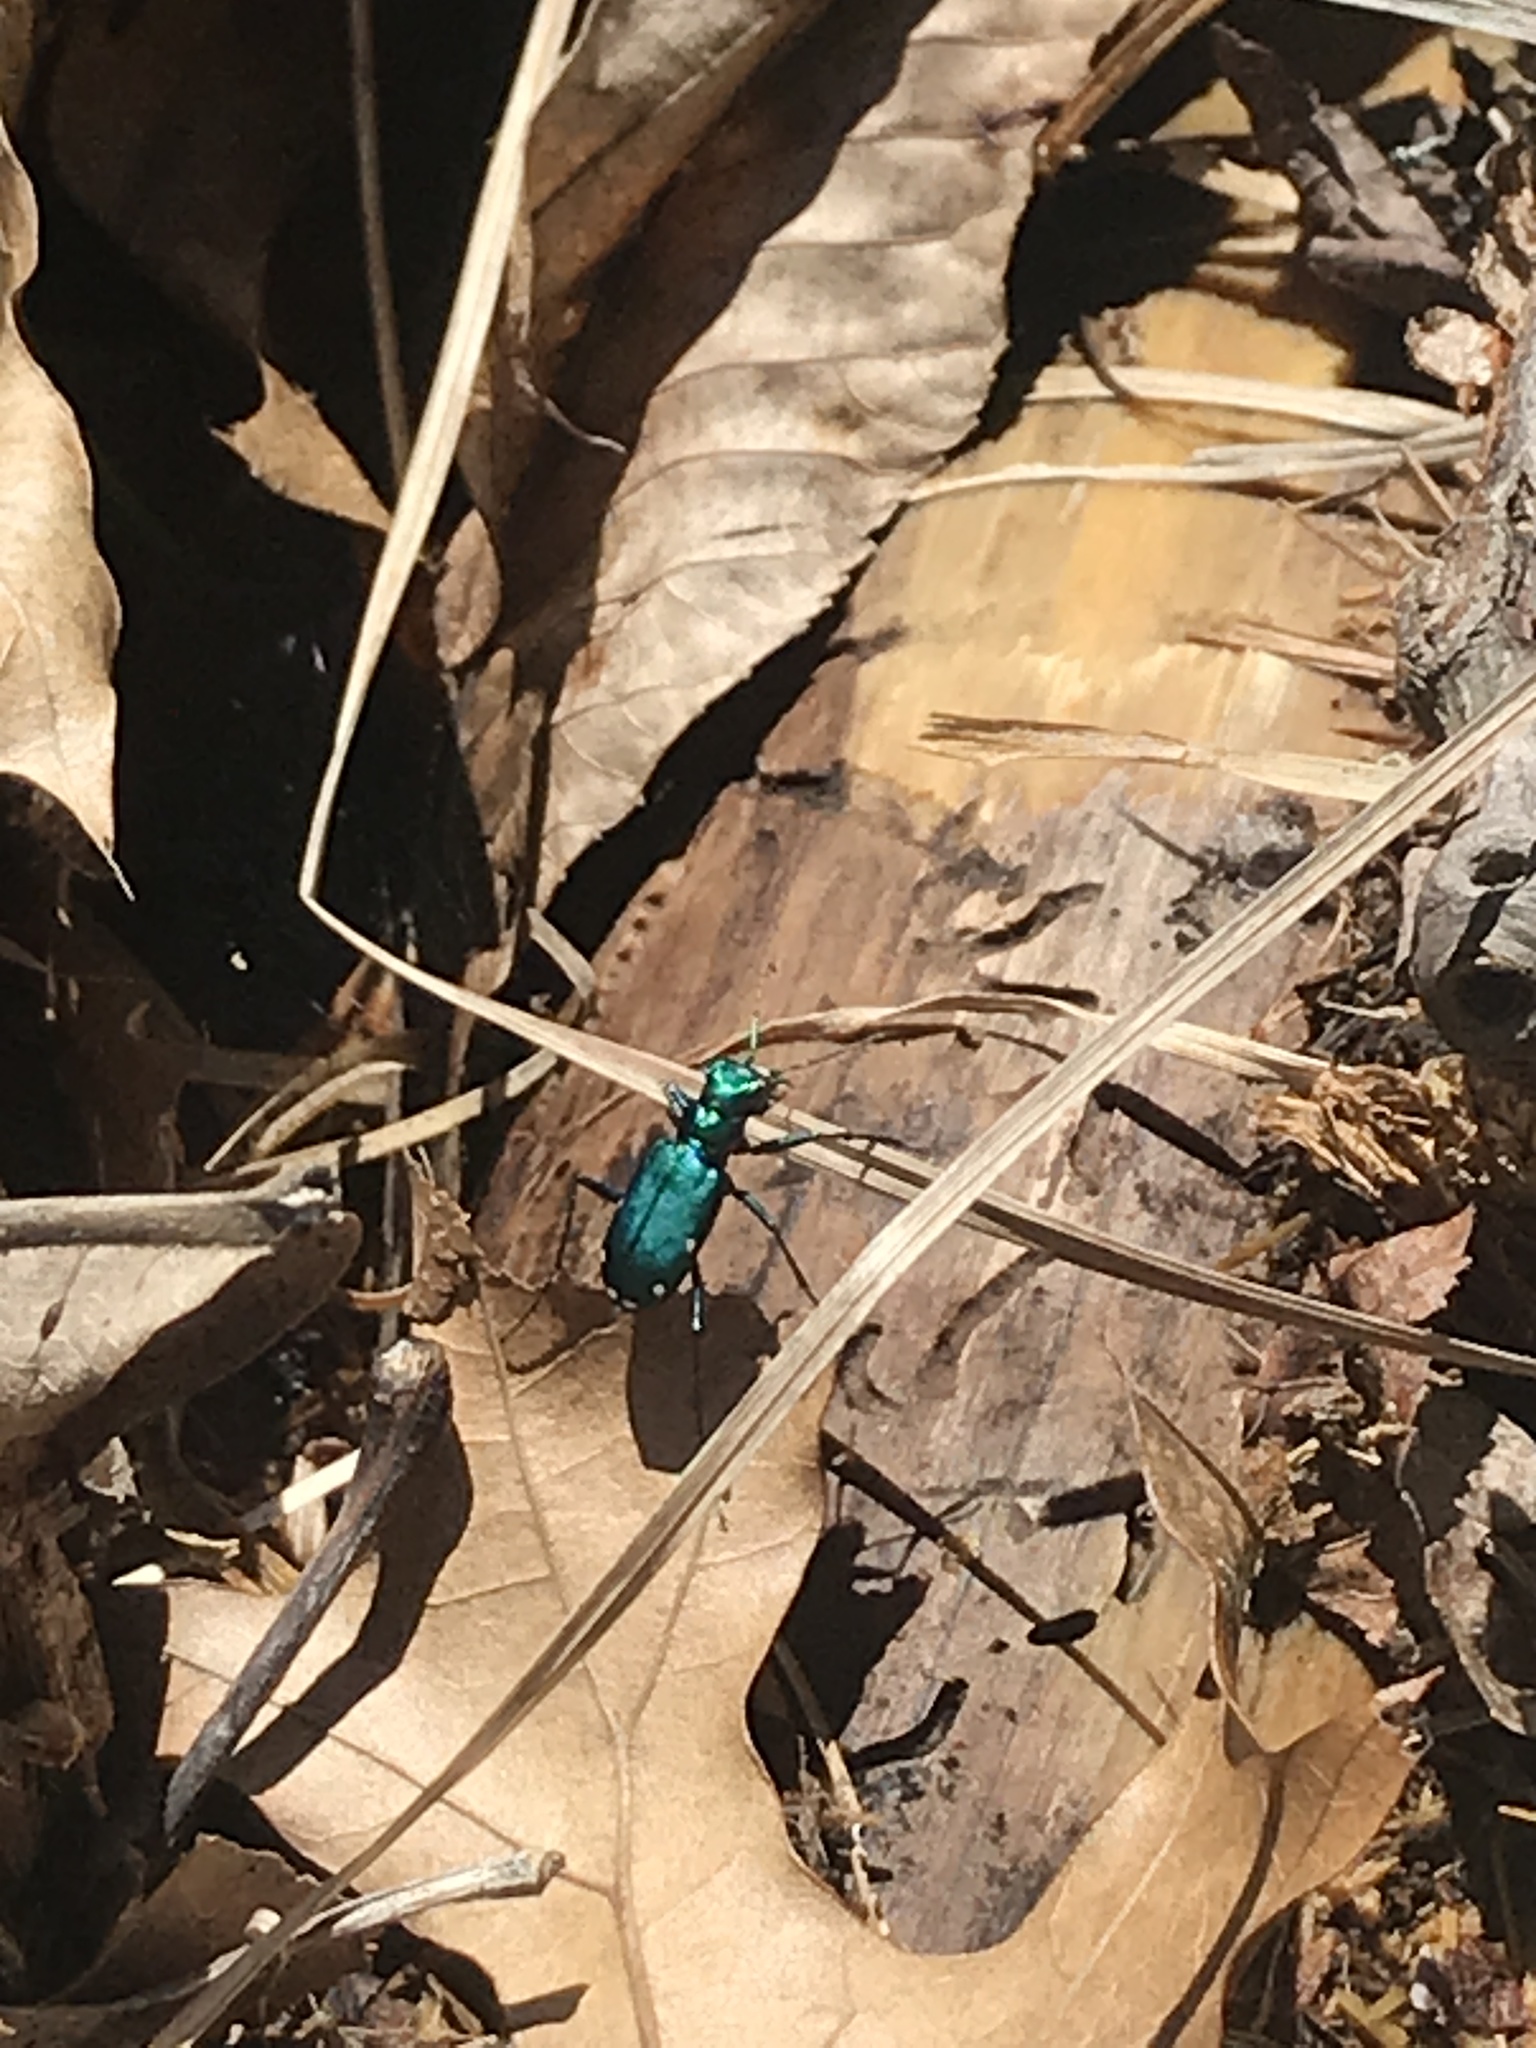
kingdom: Animalia
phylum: Arthropoda
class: Insecta
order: Coleoptera
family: Carabidae
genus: Cicindela
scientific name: Cicindela sexguttata
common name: Six-spotted tiger beetle
